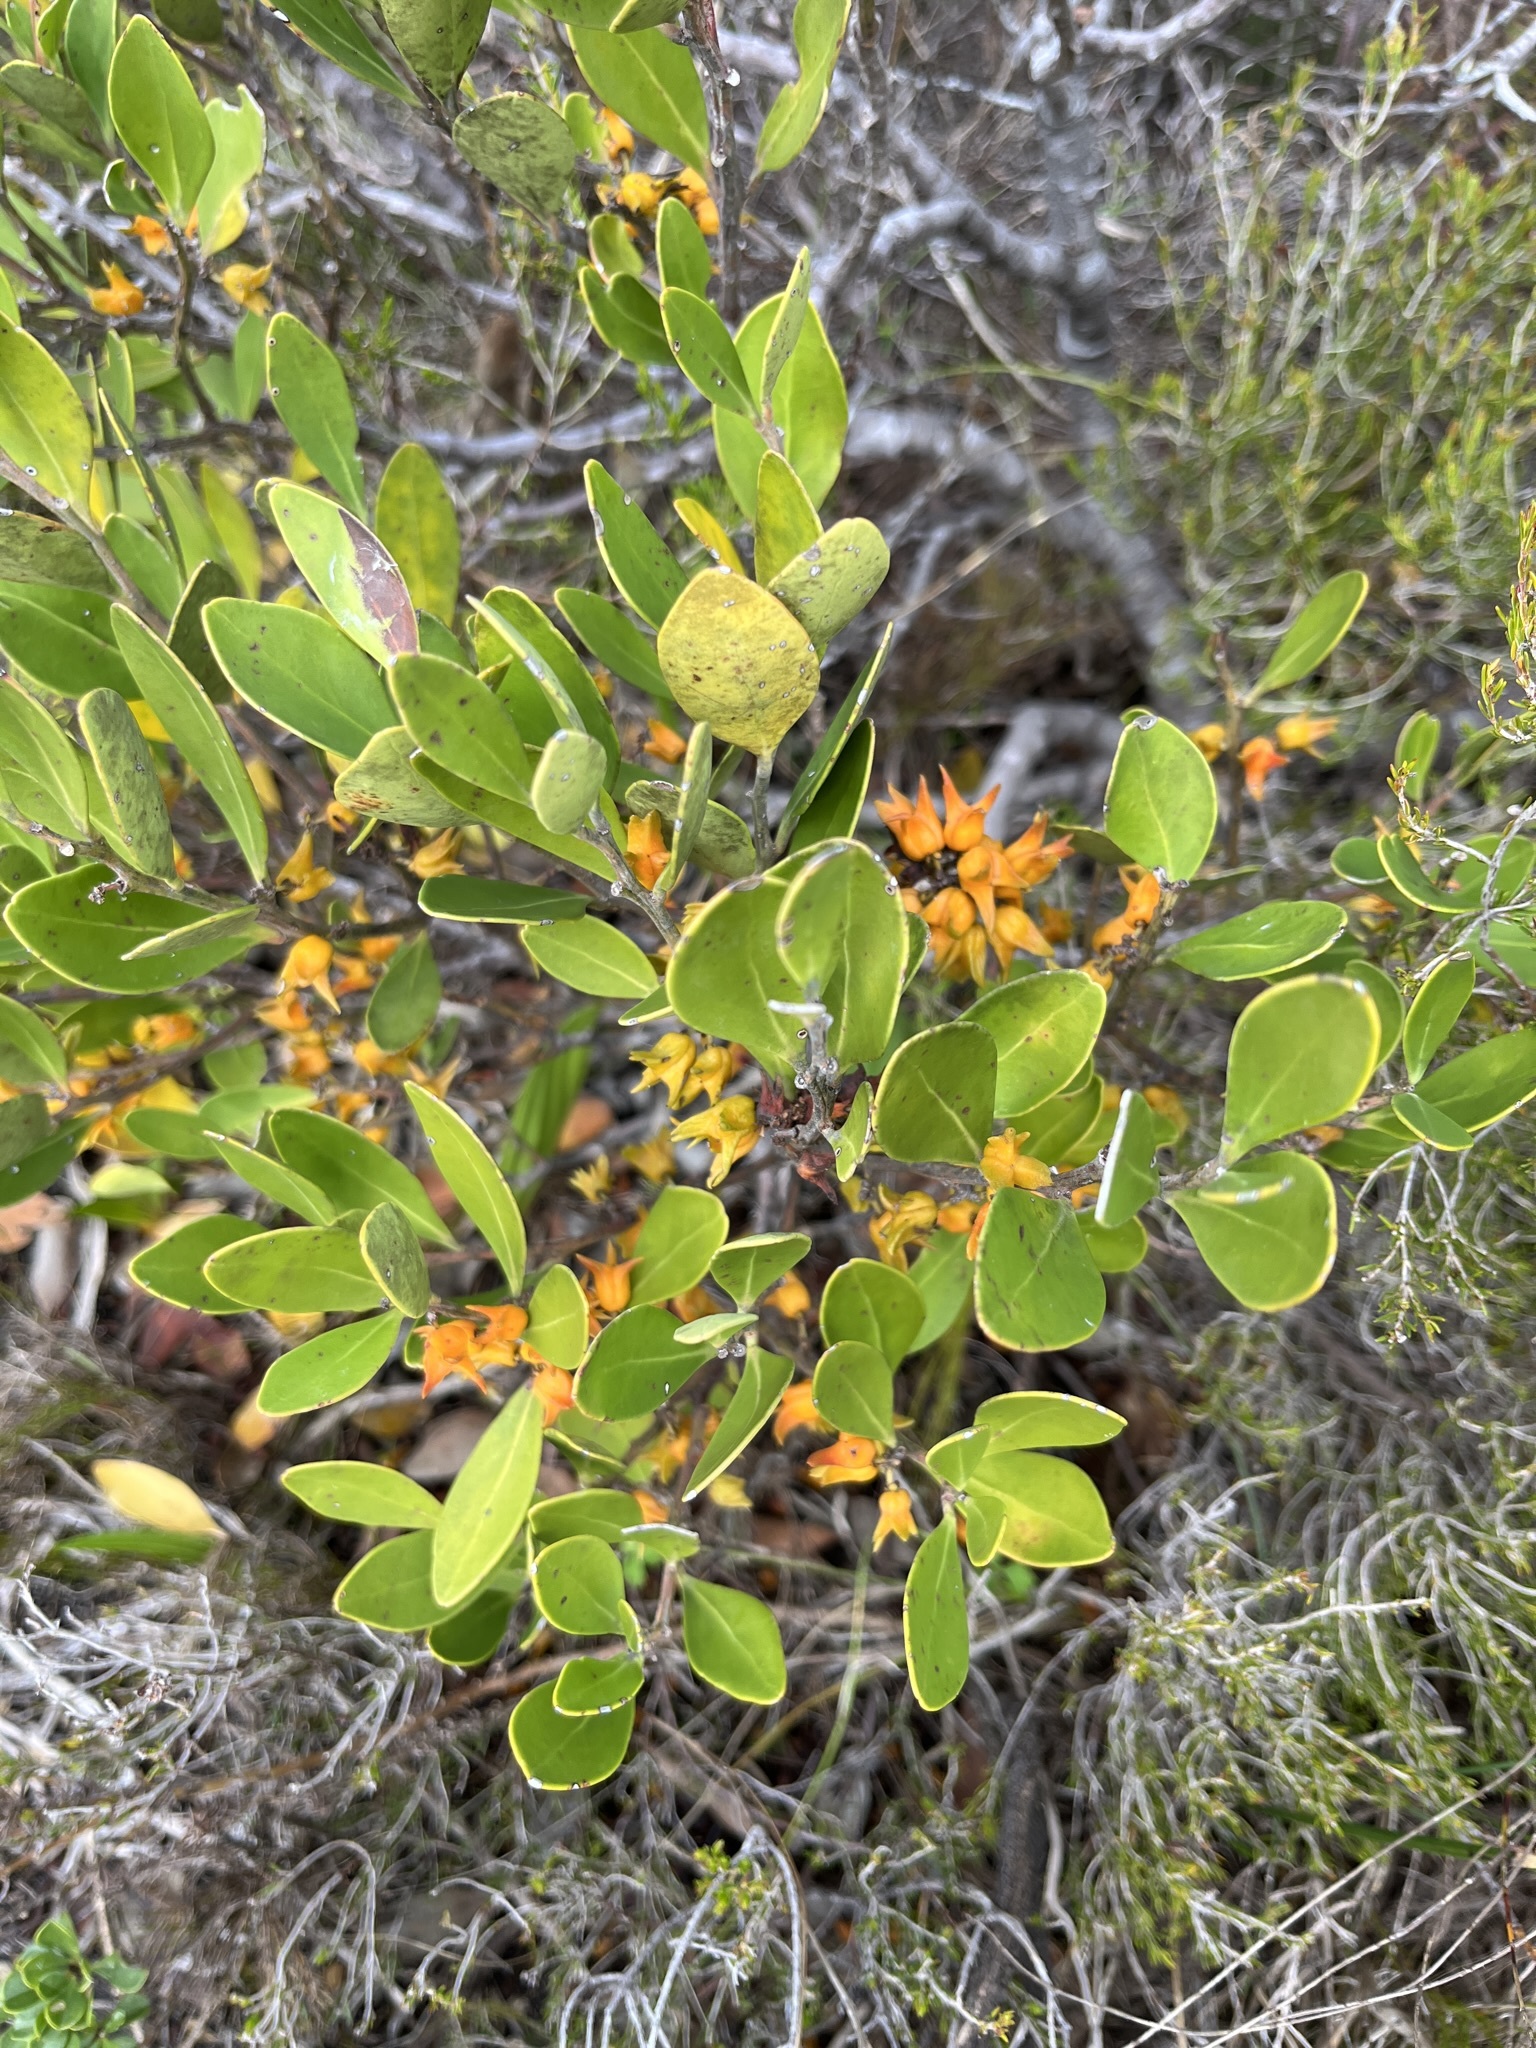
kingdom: Plantae
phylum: Tracheophyta
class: Magnoliopsida
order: Celastrales
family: Celastraceae
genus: Pterocelastrus
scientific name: Pterocelastrus tricuspidatus
